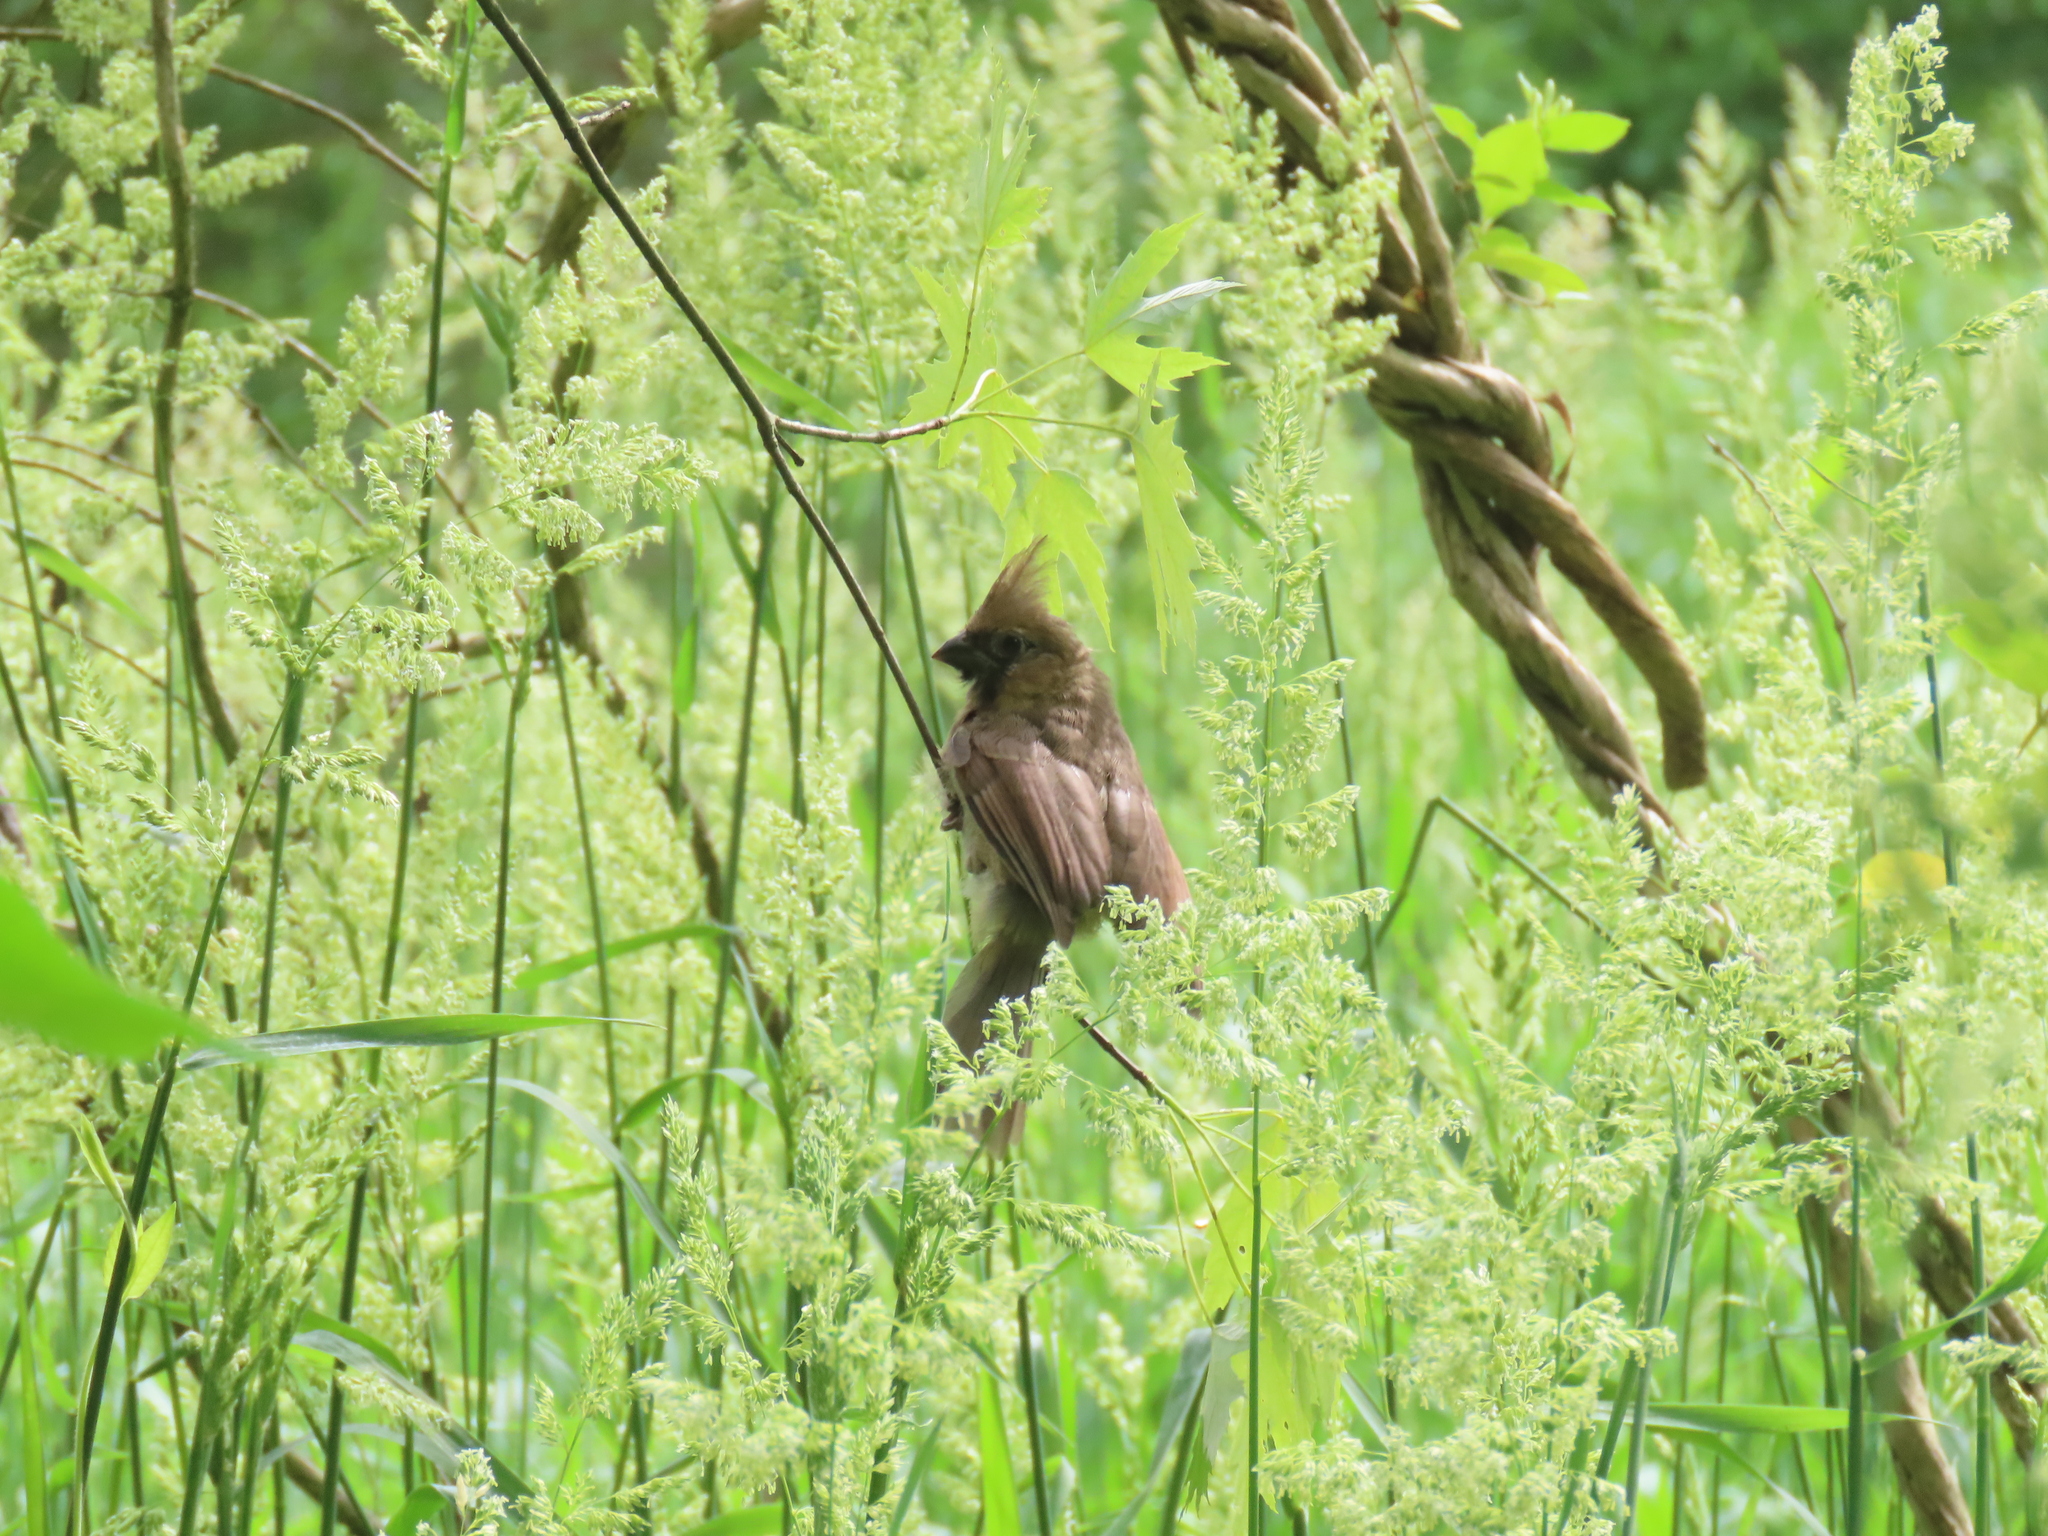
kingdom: Animalia
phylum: Chordata
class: Aves
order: Passeriformes
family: Cardinalidae
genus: Cardinalis
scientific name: Cardinalis cardinalis
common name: Northern cardinal
